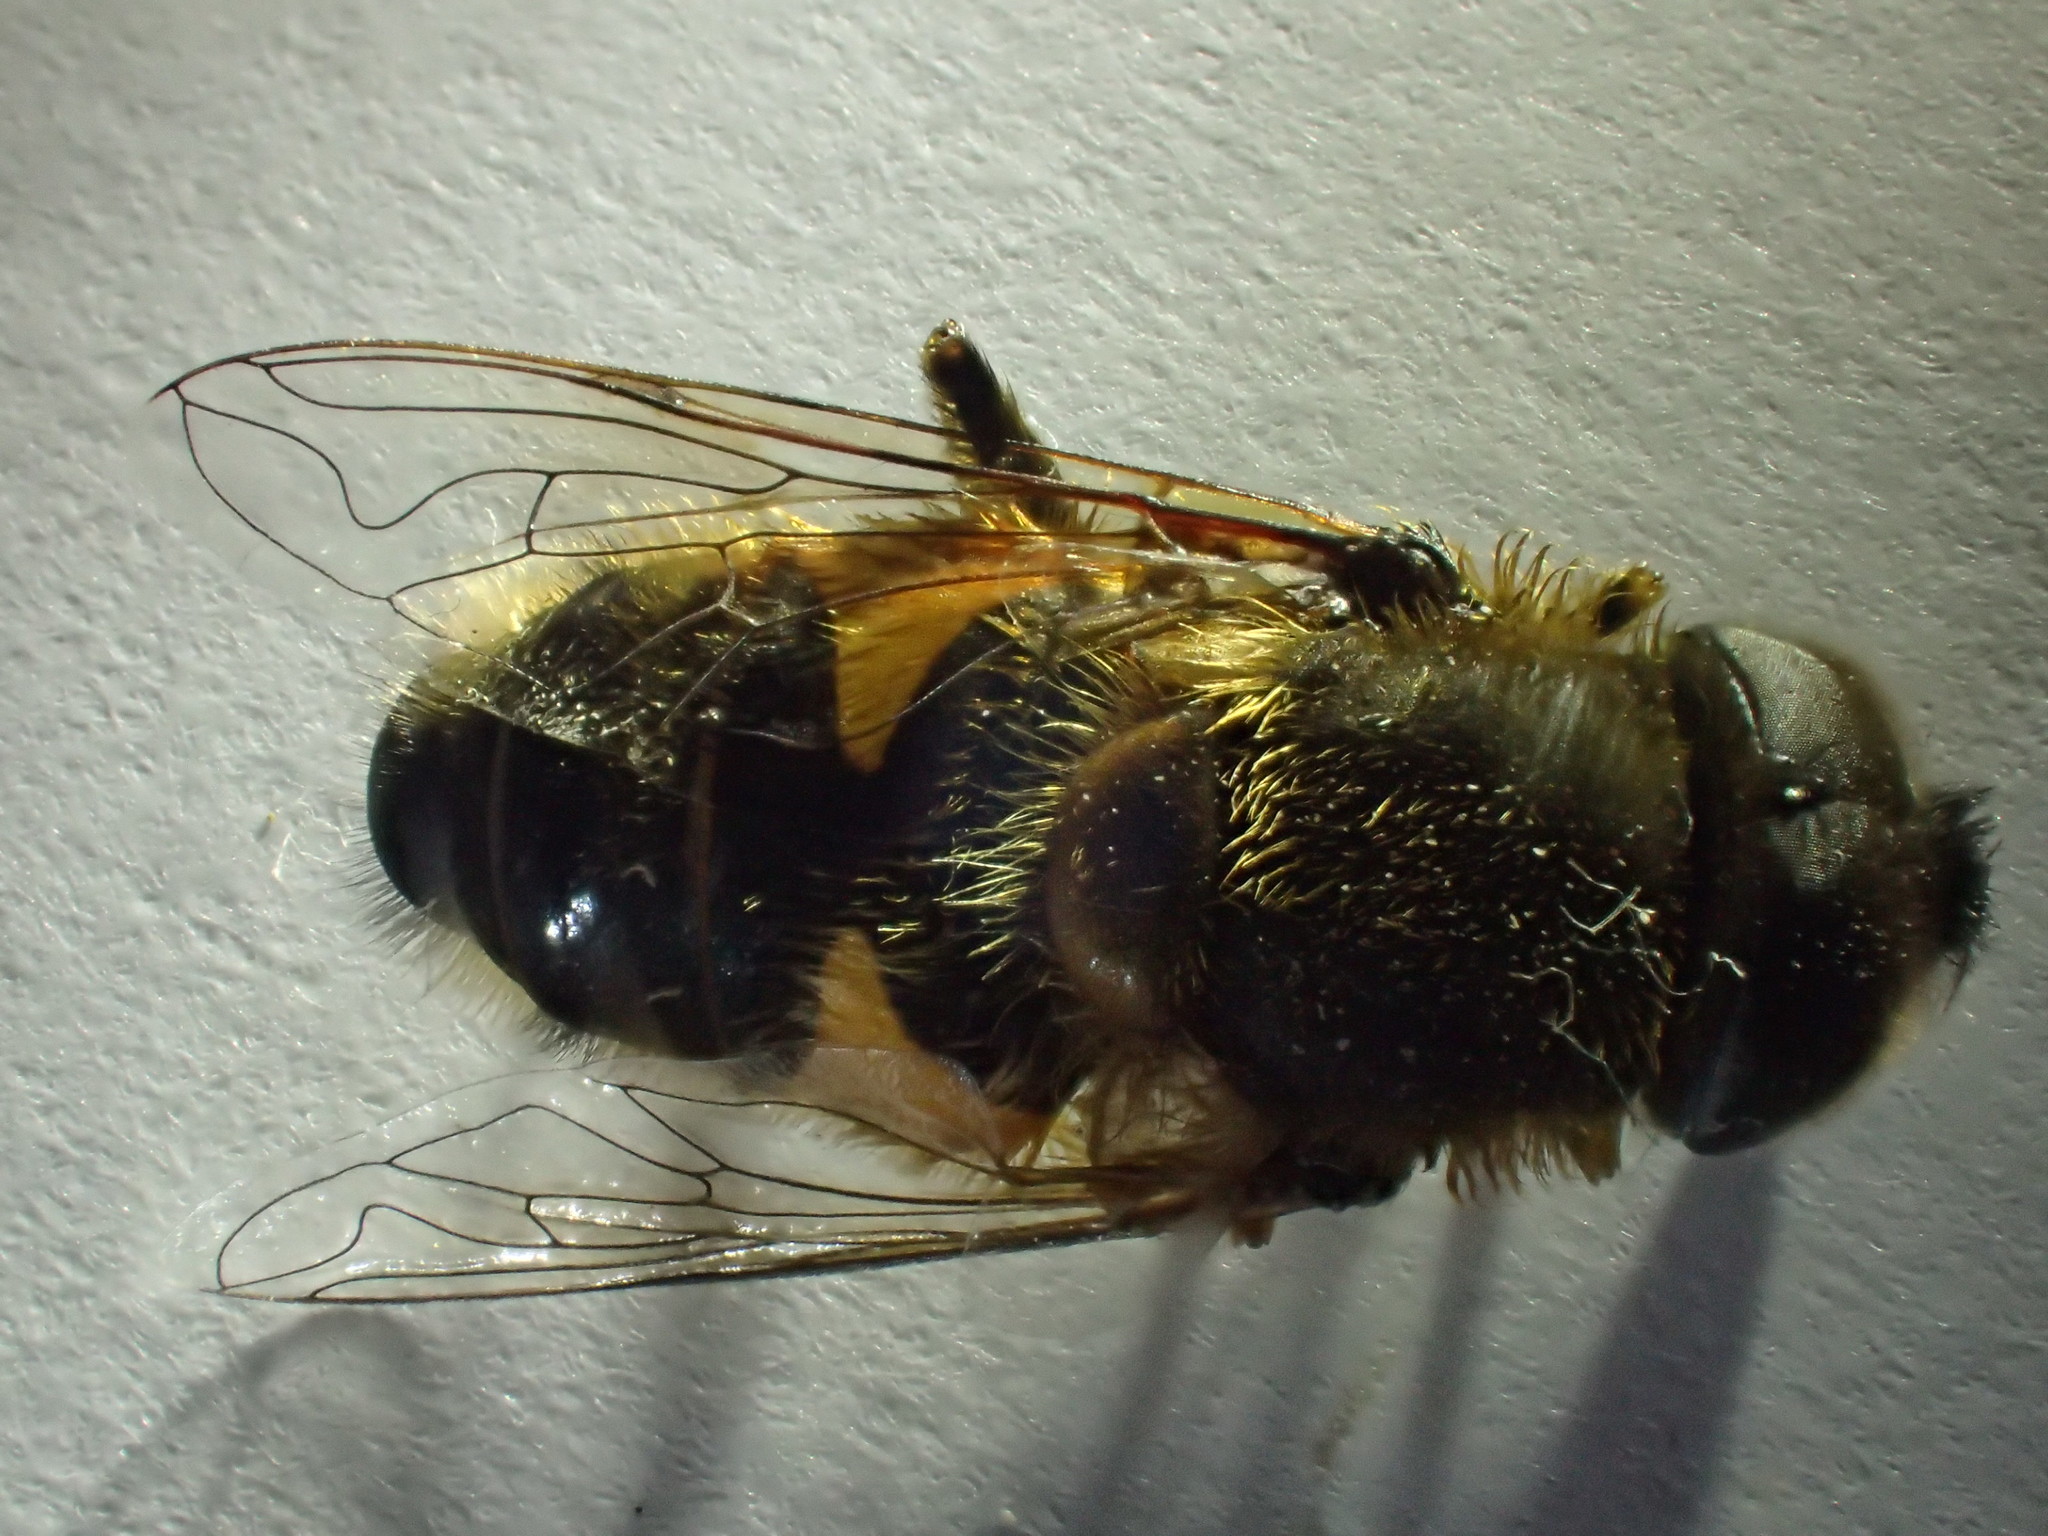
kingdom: Animalia
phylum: Arthropoda
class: Insecta
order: Diptera
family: Syrphidae
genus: Eristalis
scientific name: Eristalis pertinax
